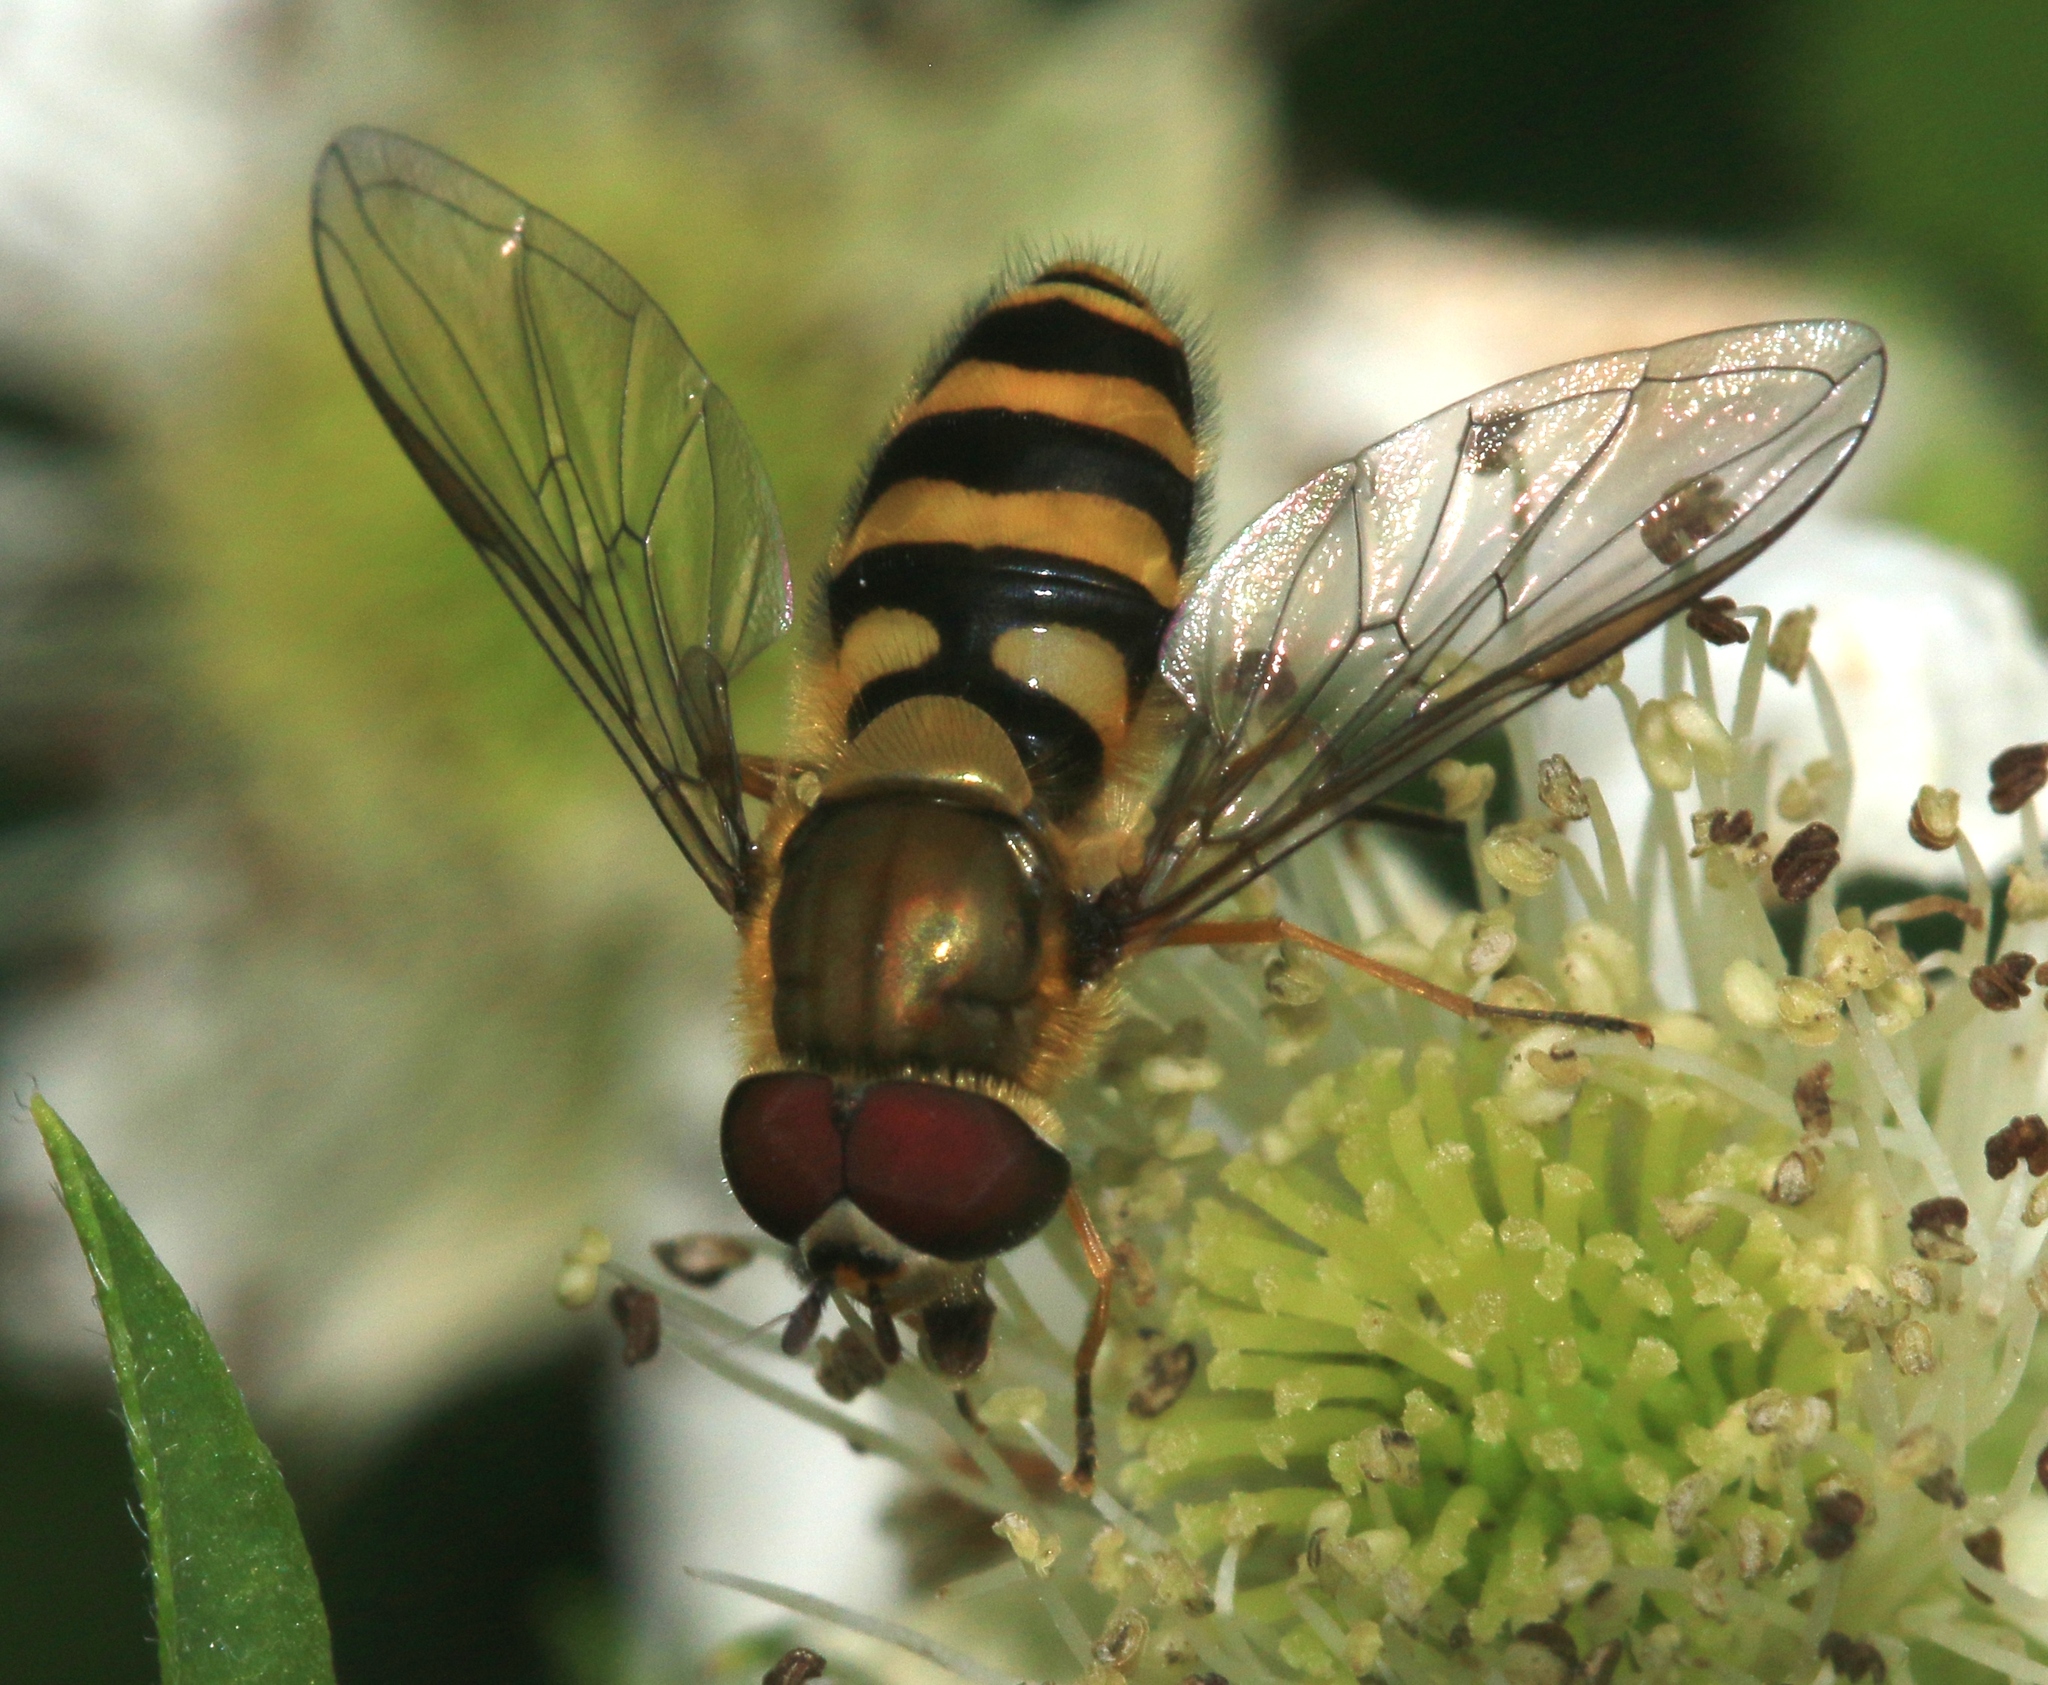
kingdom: Animalia
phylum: Arthropoda
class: Insecta
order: Diptera
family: Syrphidae
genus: Syrphus
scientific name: Syrphus torvus
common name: Hairy-eyed flower fly
